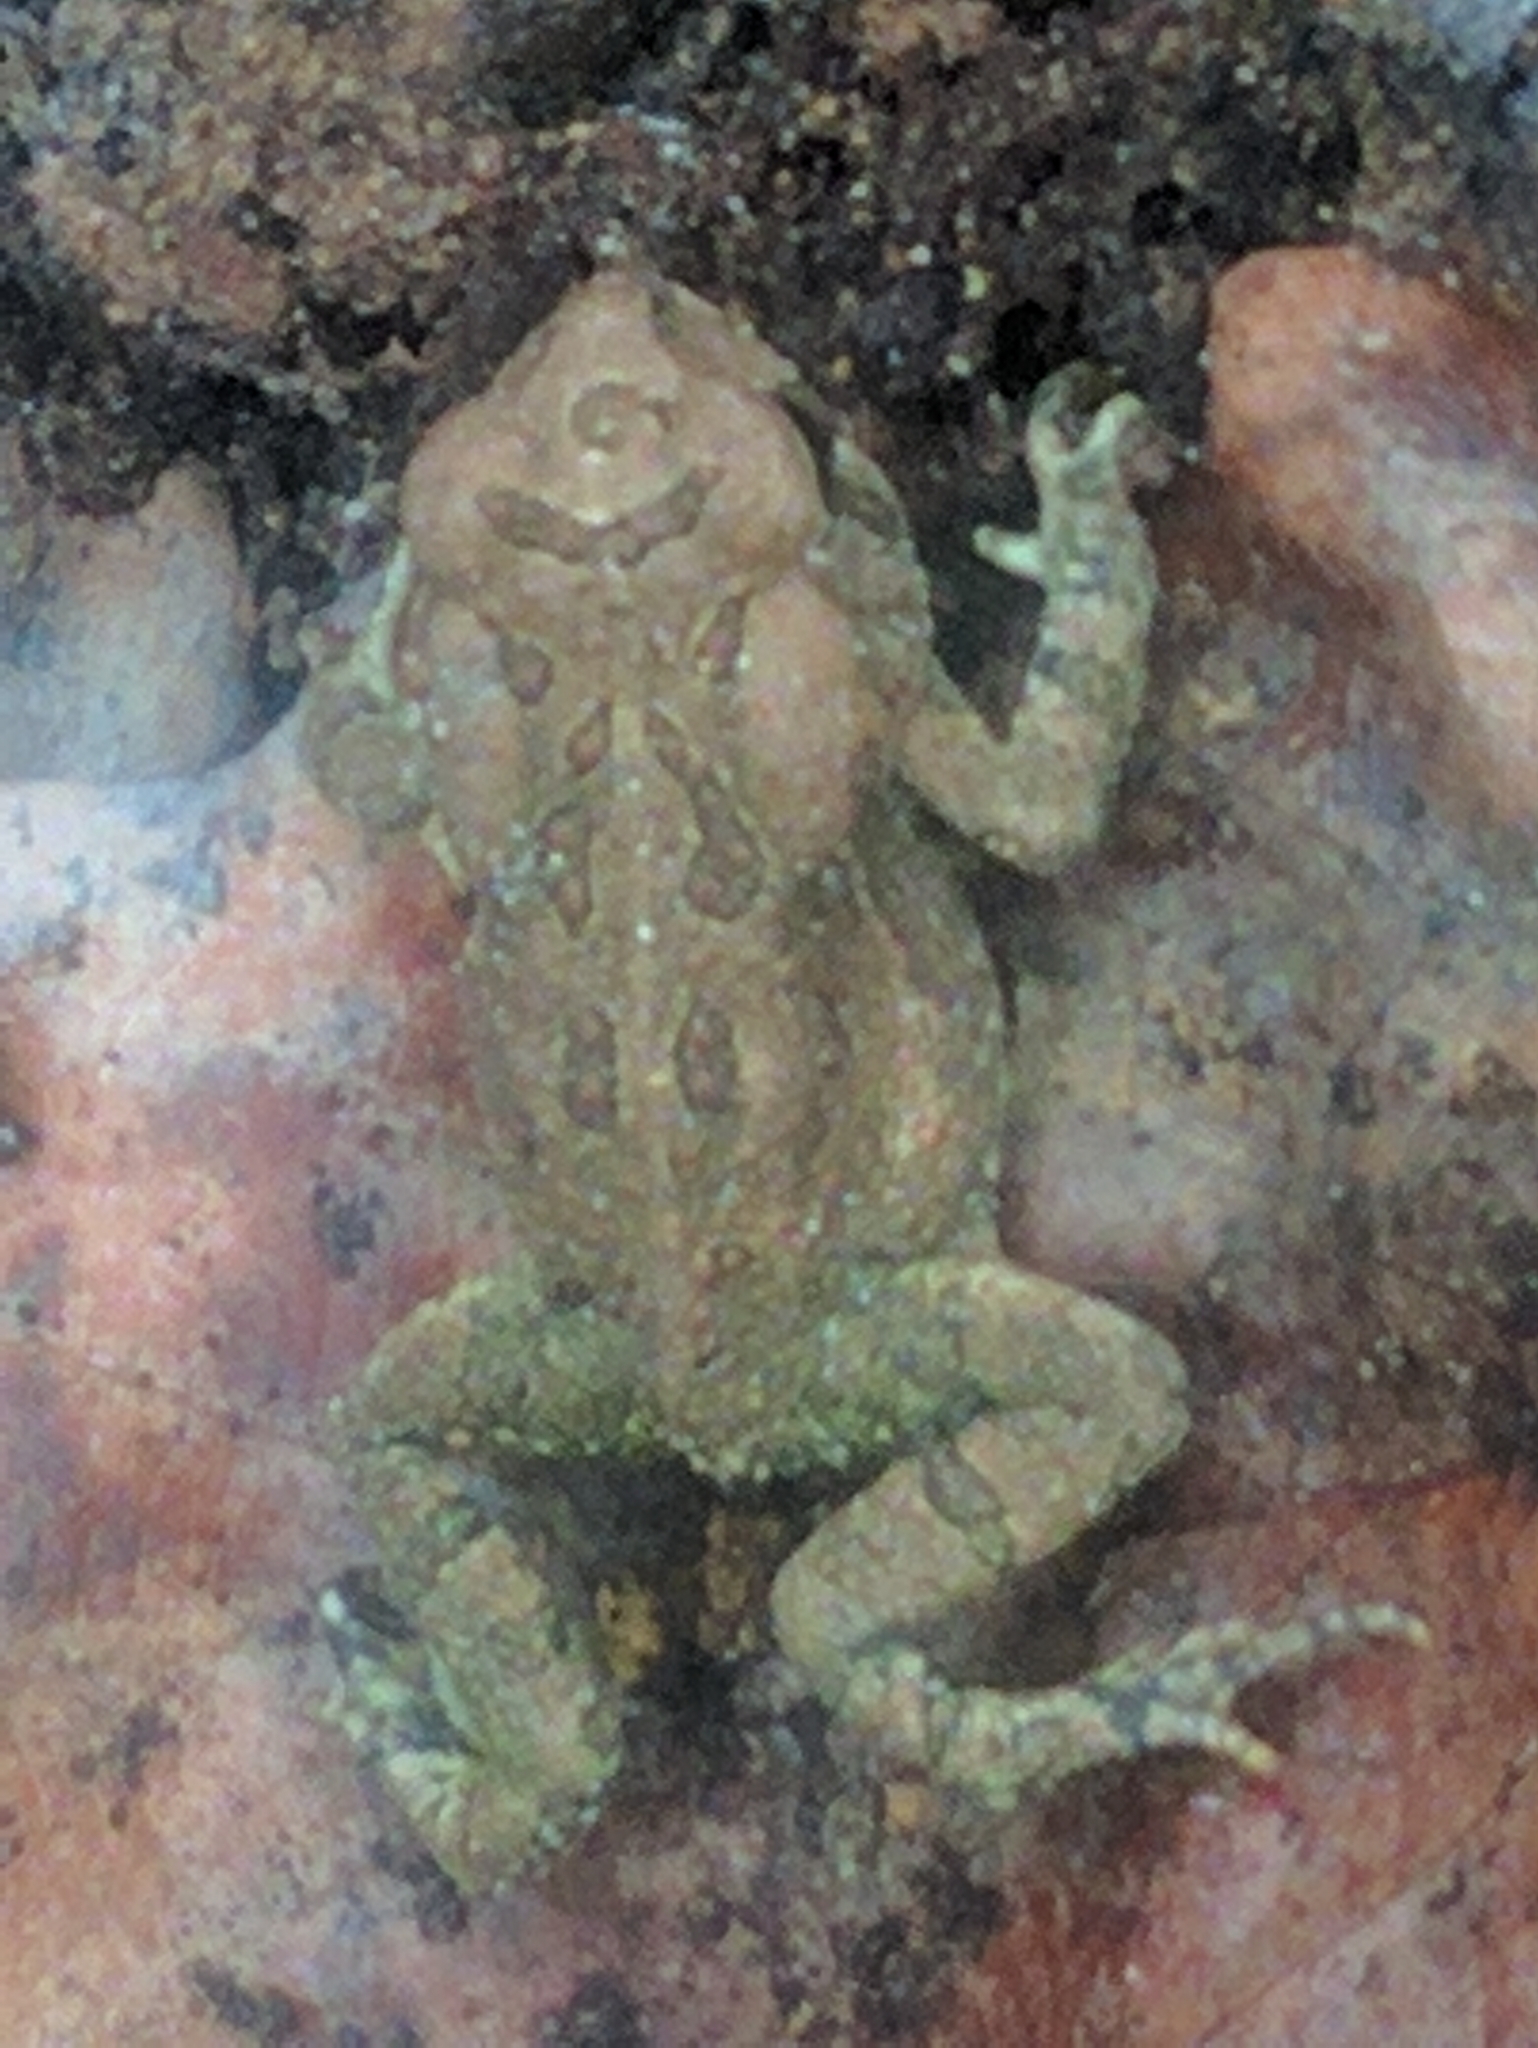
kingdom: Animalia
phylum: Chordata
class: Amphibia
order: Anura
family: Bufonidae
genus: Anaxyrus
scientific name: Anaxyrus fowleri
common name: Fowler's toad
